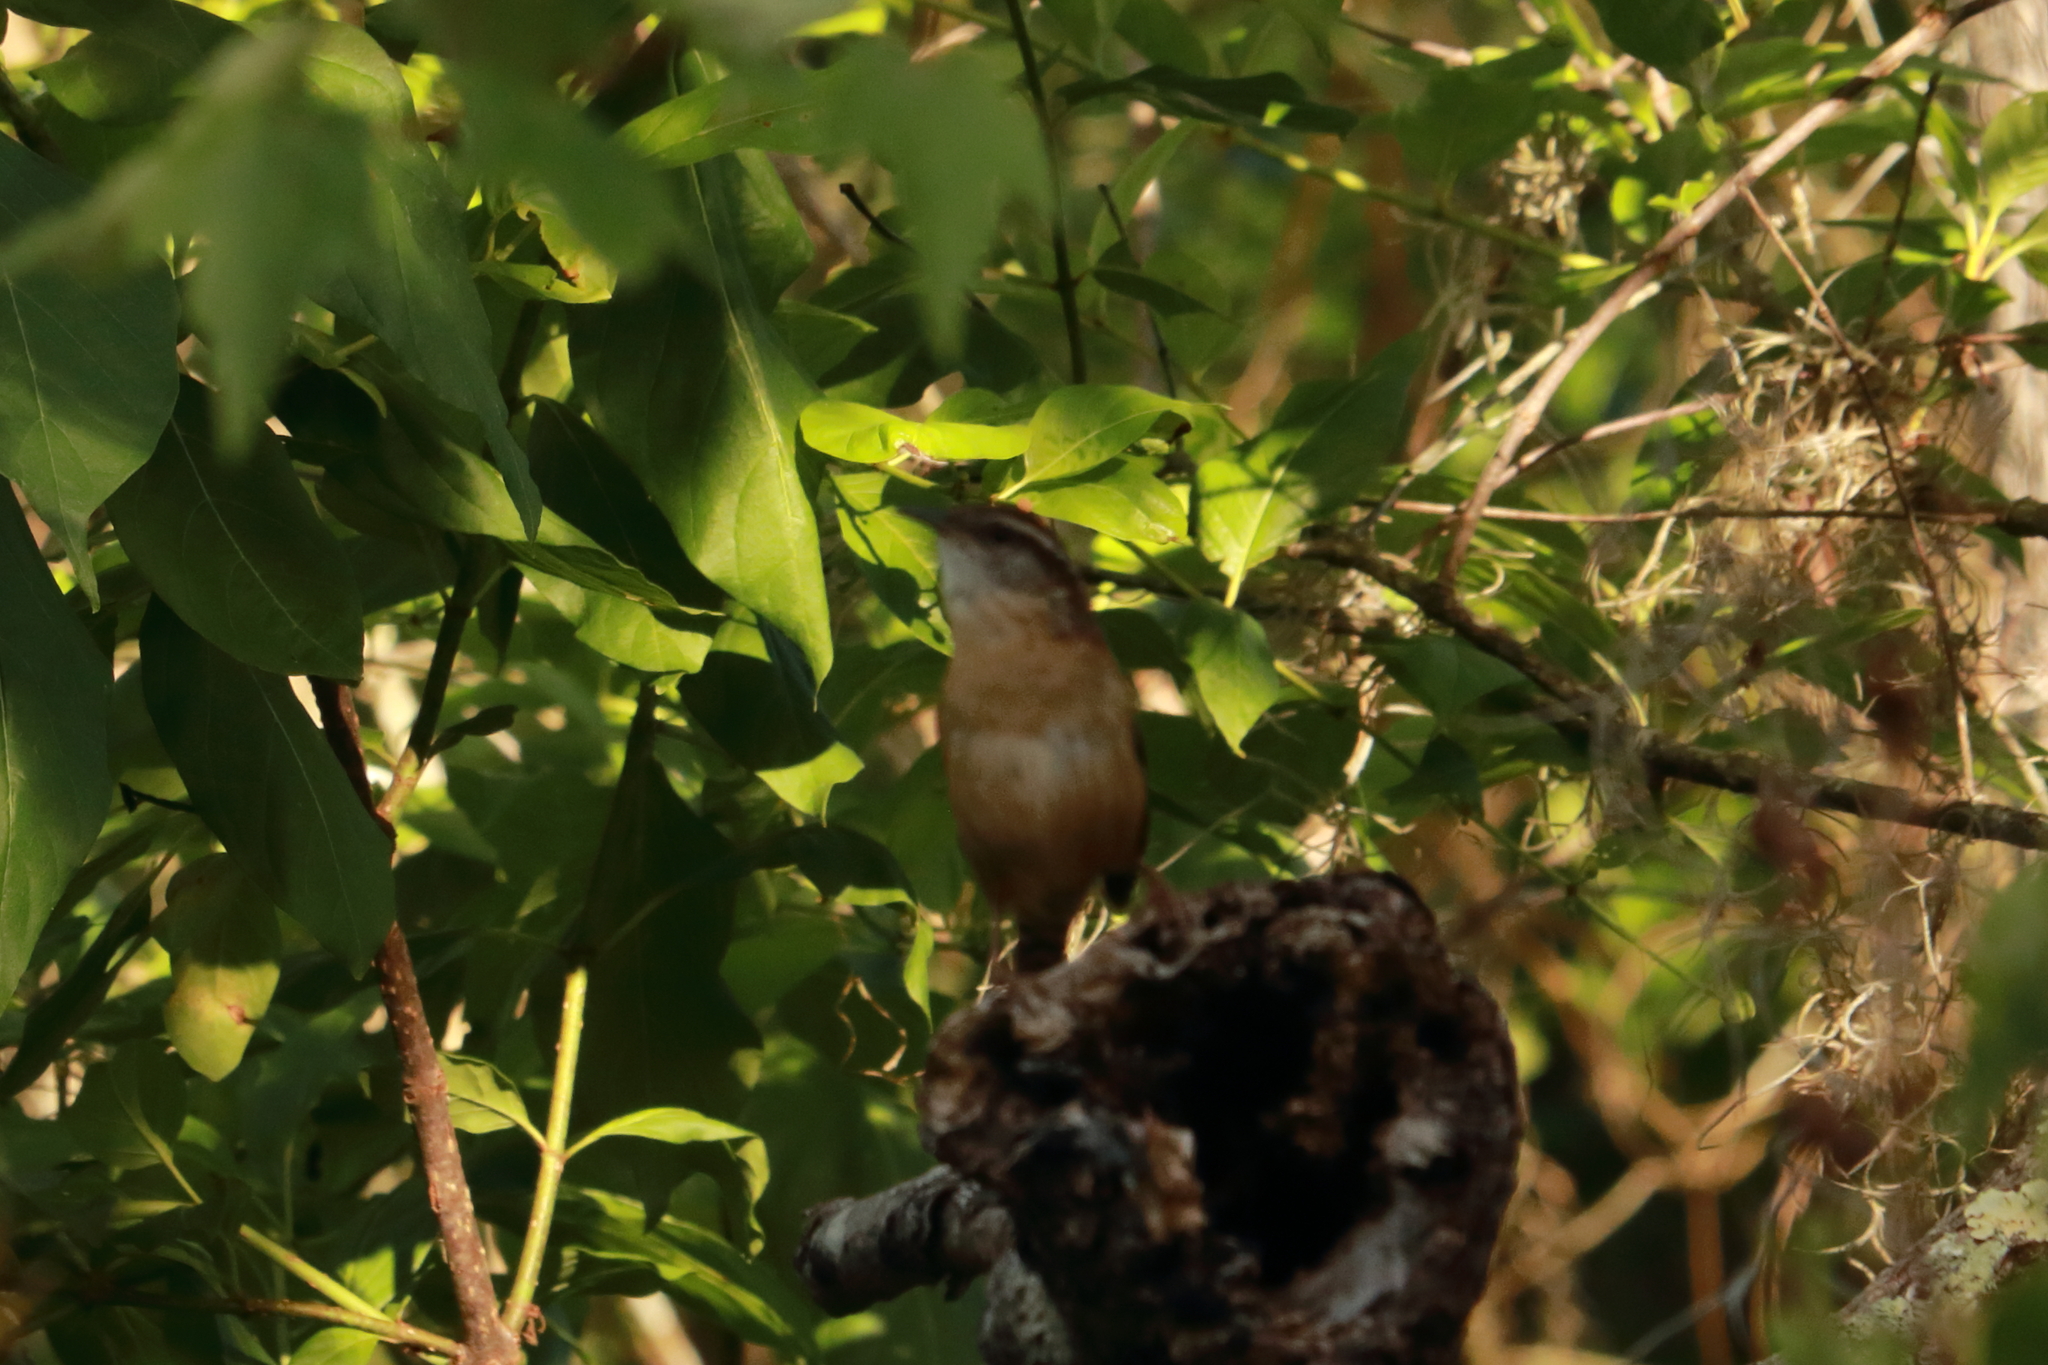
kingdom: Animalia
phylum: Chordata
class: Aves
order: Passeriformes
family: Troglodytidae
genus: Thryothorus
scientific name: Thryothorus ludovicianus
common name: Carolina wren
